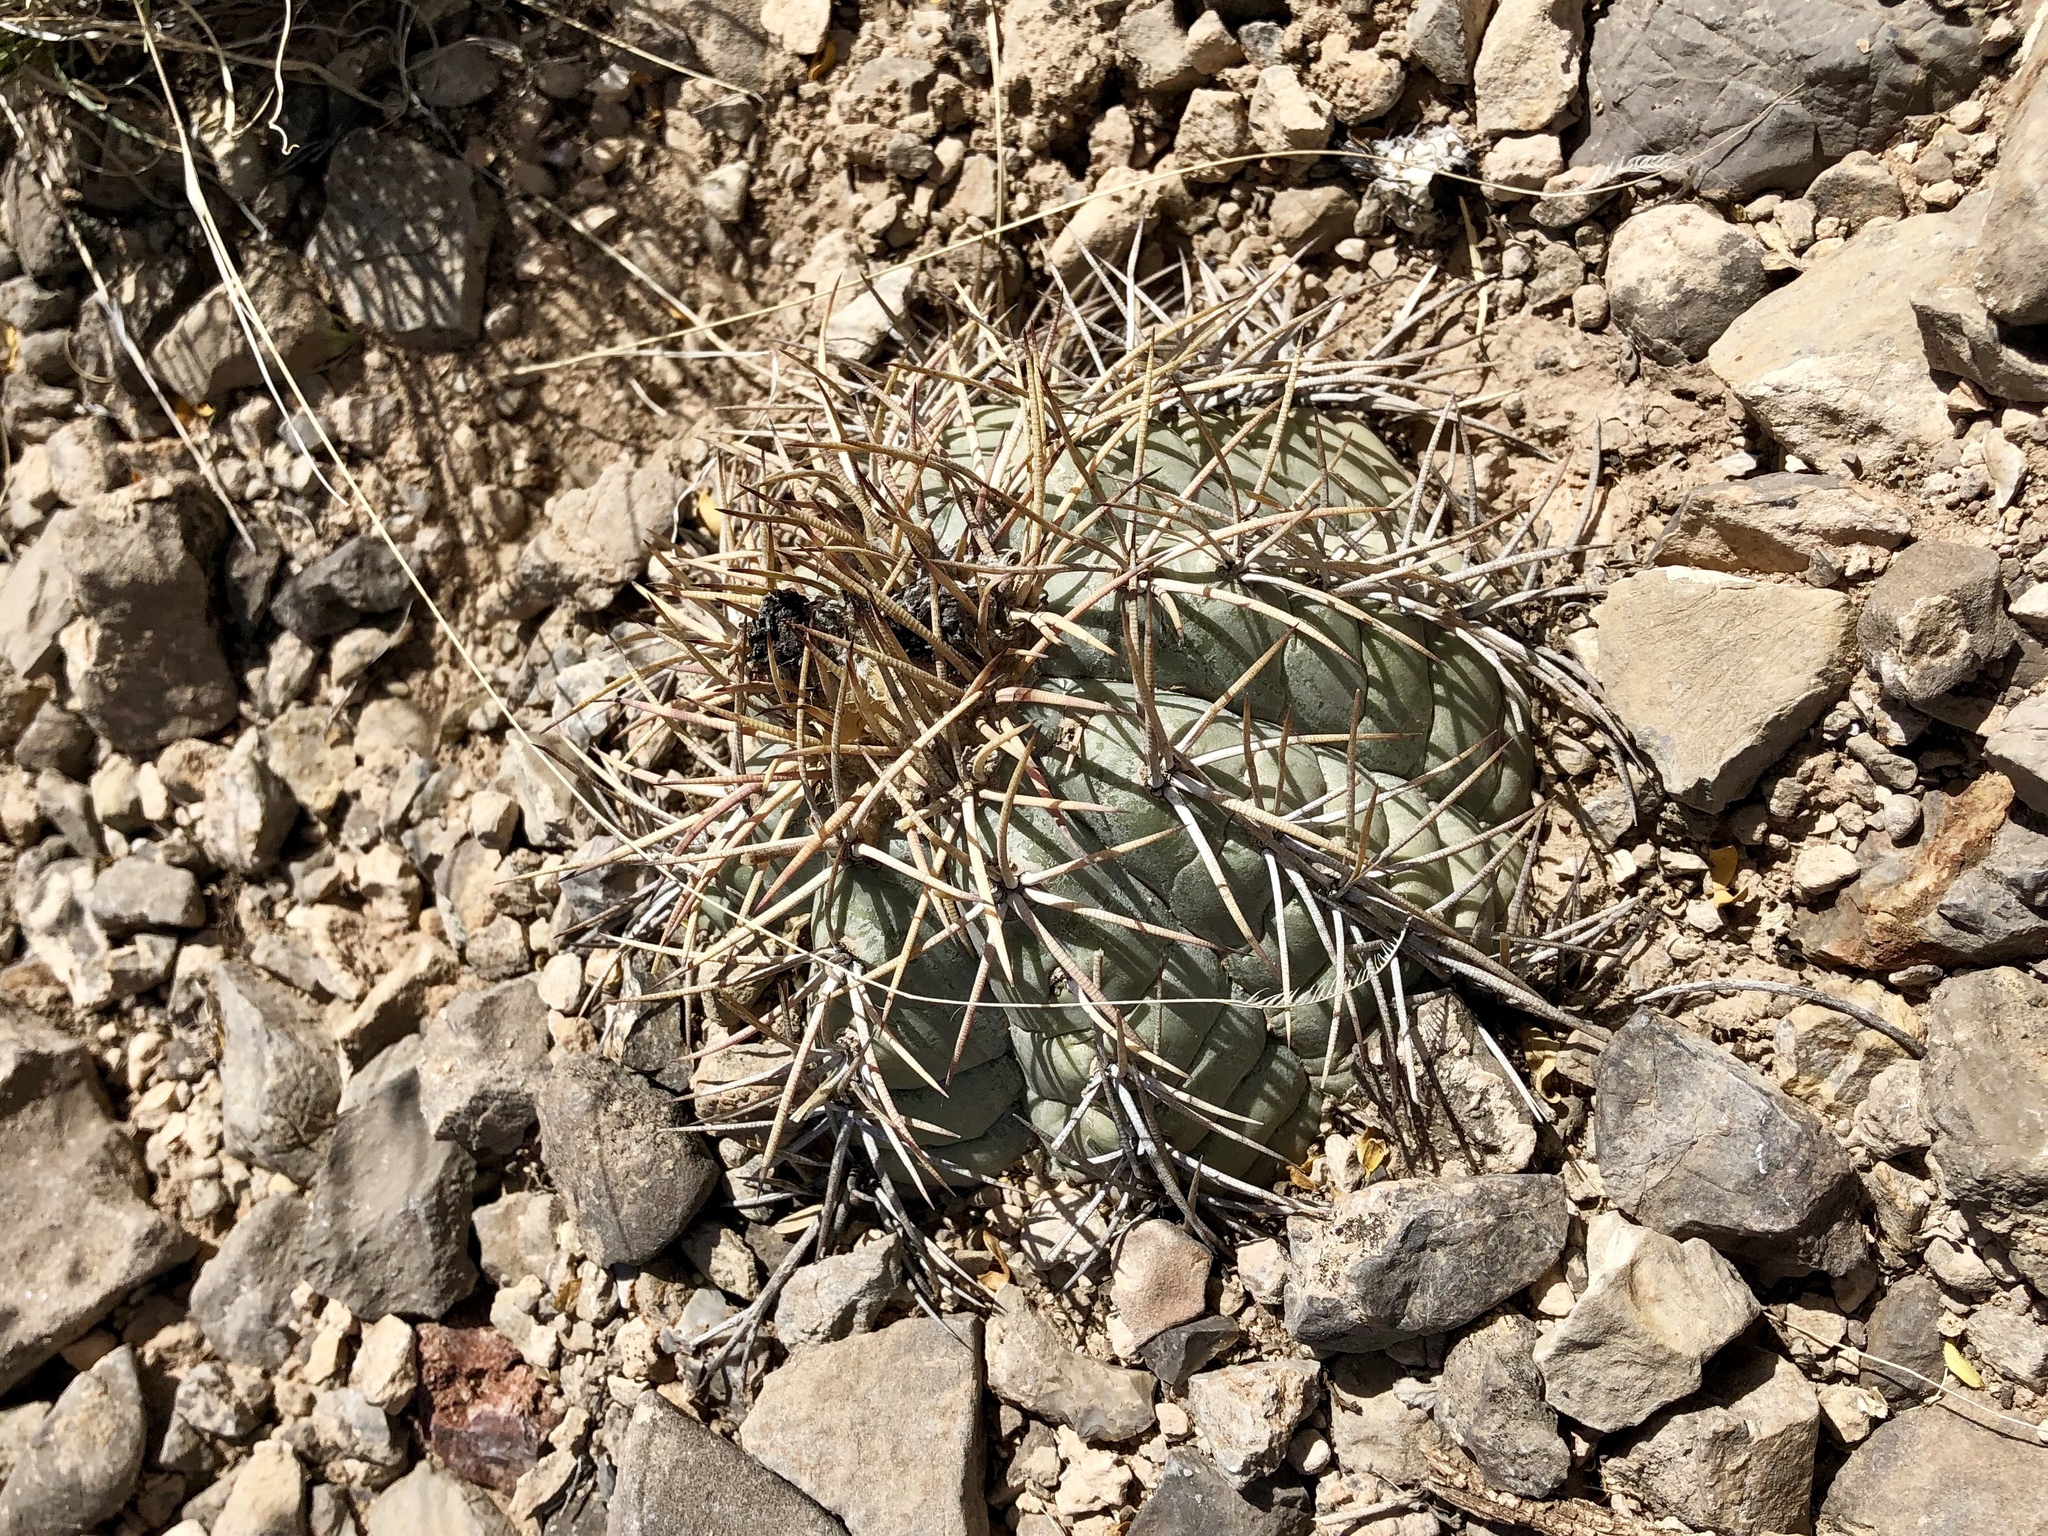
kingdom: Plantae
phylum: Tracheophyta
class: Magnoliopsida
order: Caryophyllales
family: Cactaceae
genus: Echinocactus
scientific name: Echinocactus horizonthalonius
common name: Devilshead
